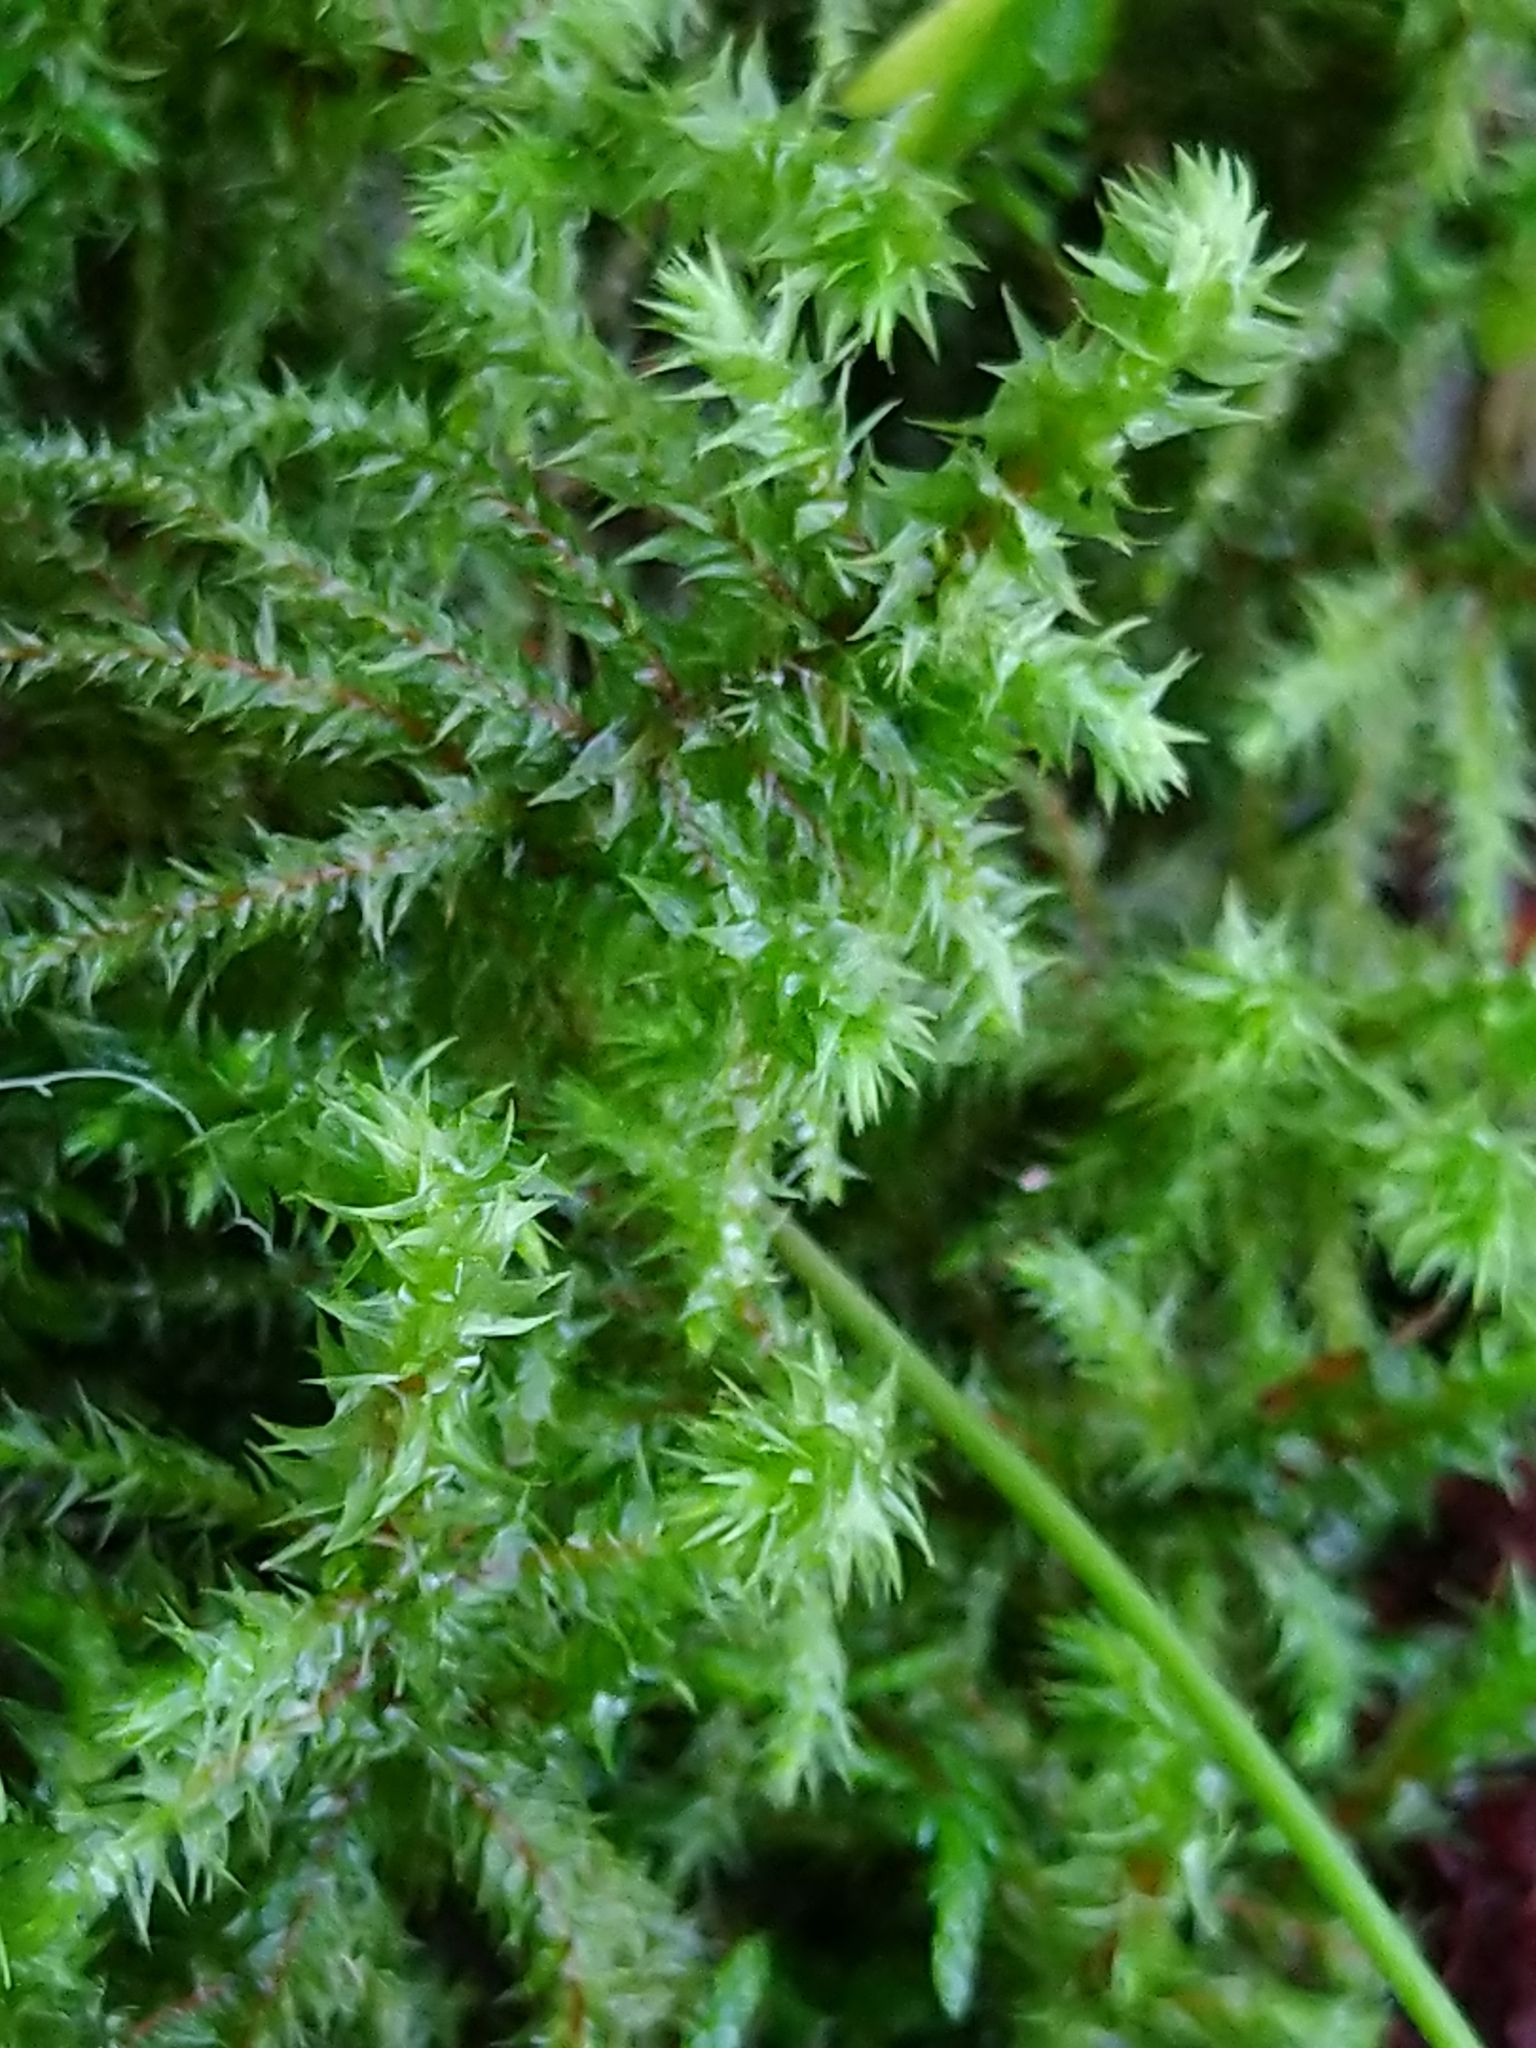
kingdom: Plantae
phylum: Bryophyta
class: Bryopsida
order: Hypnales
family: Hylocomiaceae
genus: Hylocomiadelphus
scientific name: Hylocomiadelphus triquetrus
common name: Rough goose neck moss
